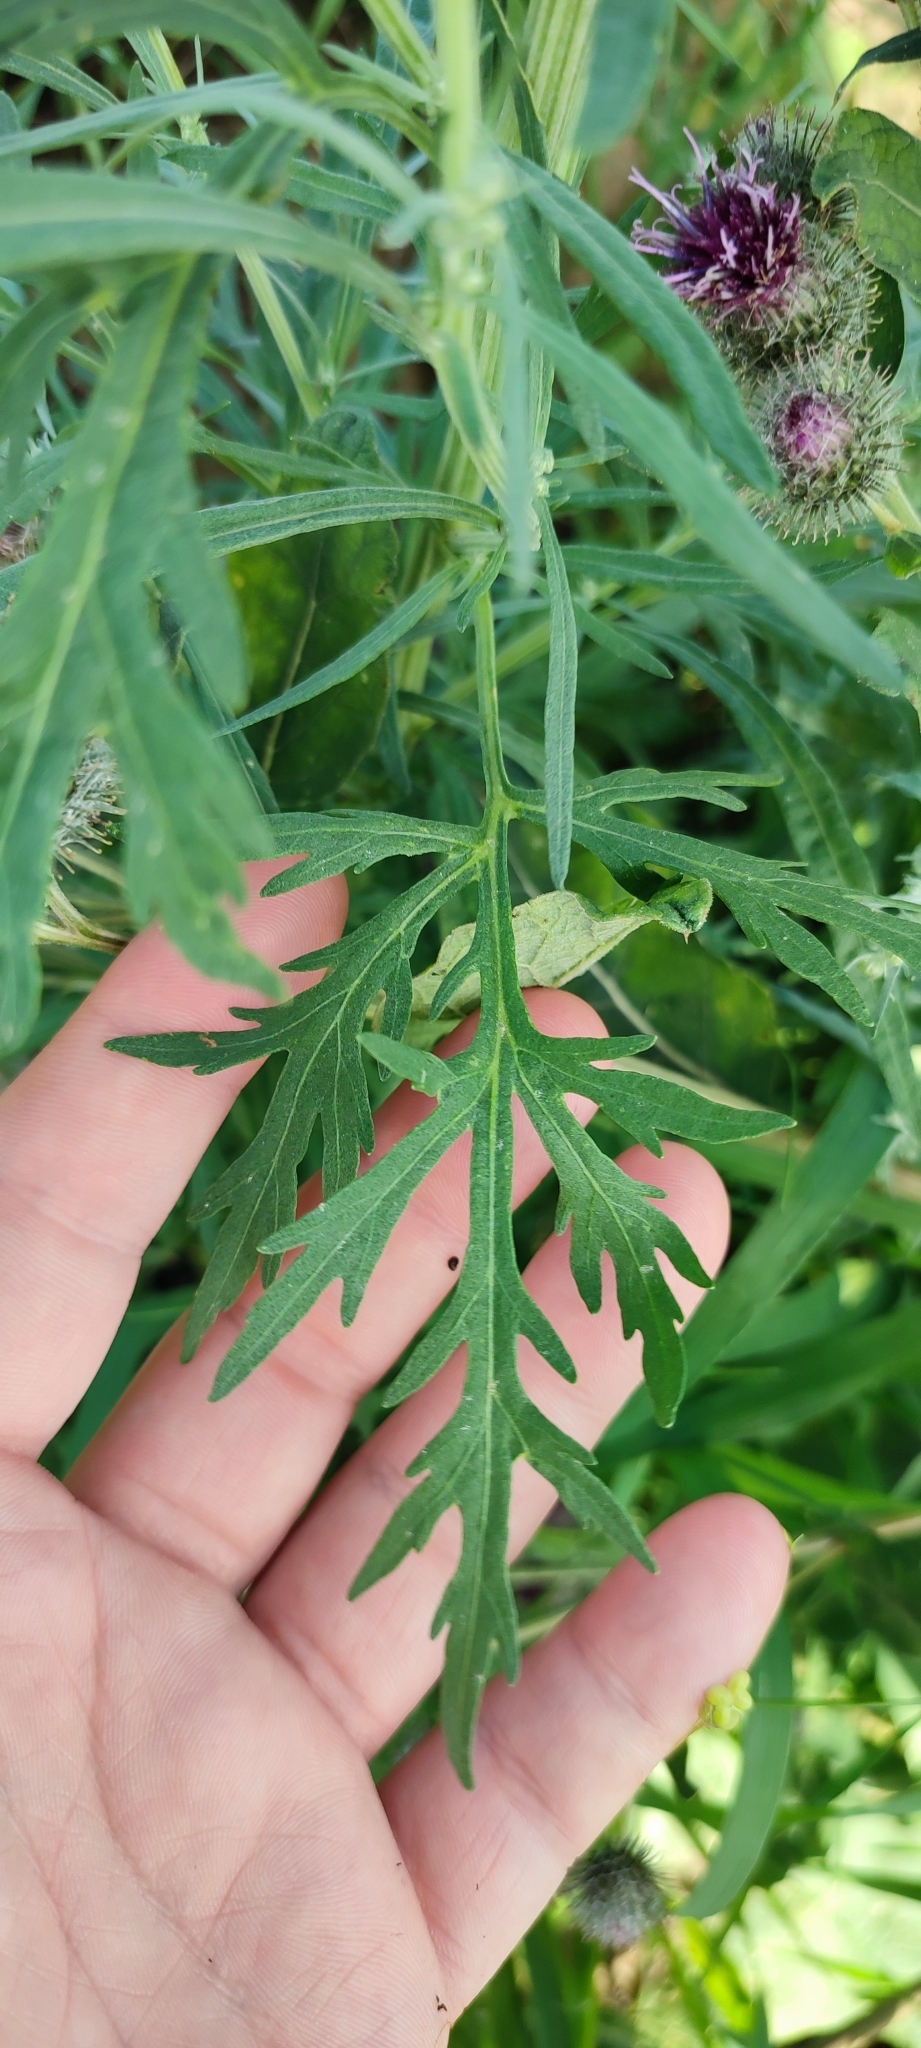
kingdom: Plantae
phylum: Tracheophyta
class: Magnoliopsida
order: Asterales
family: Asteraceae
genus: Artemisia
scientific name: Artemisia sieversiana
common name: Sieversian wormwood
